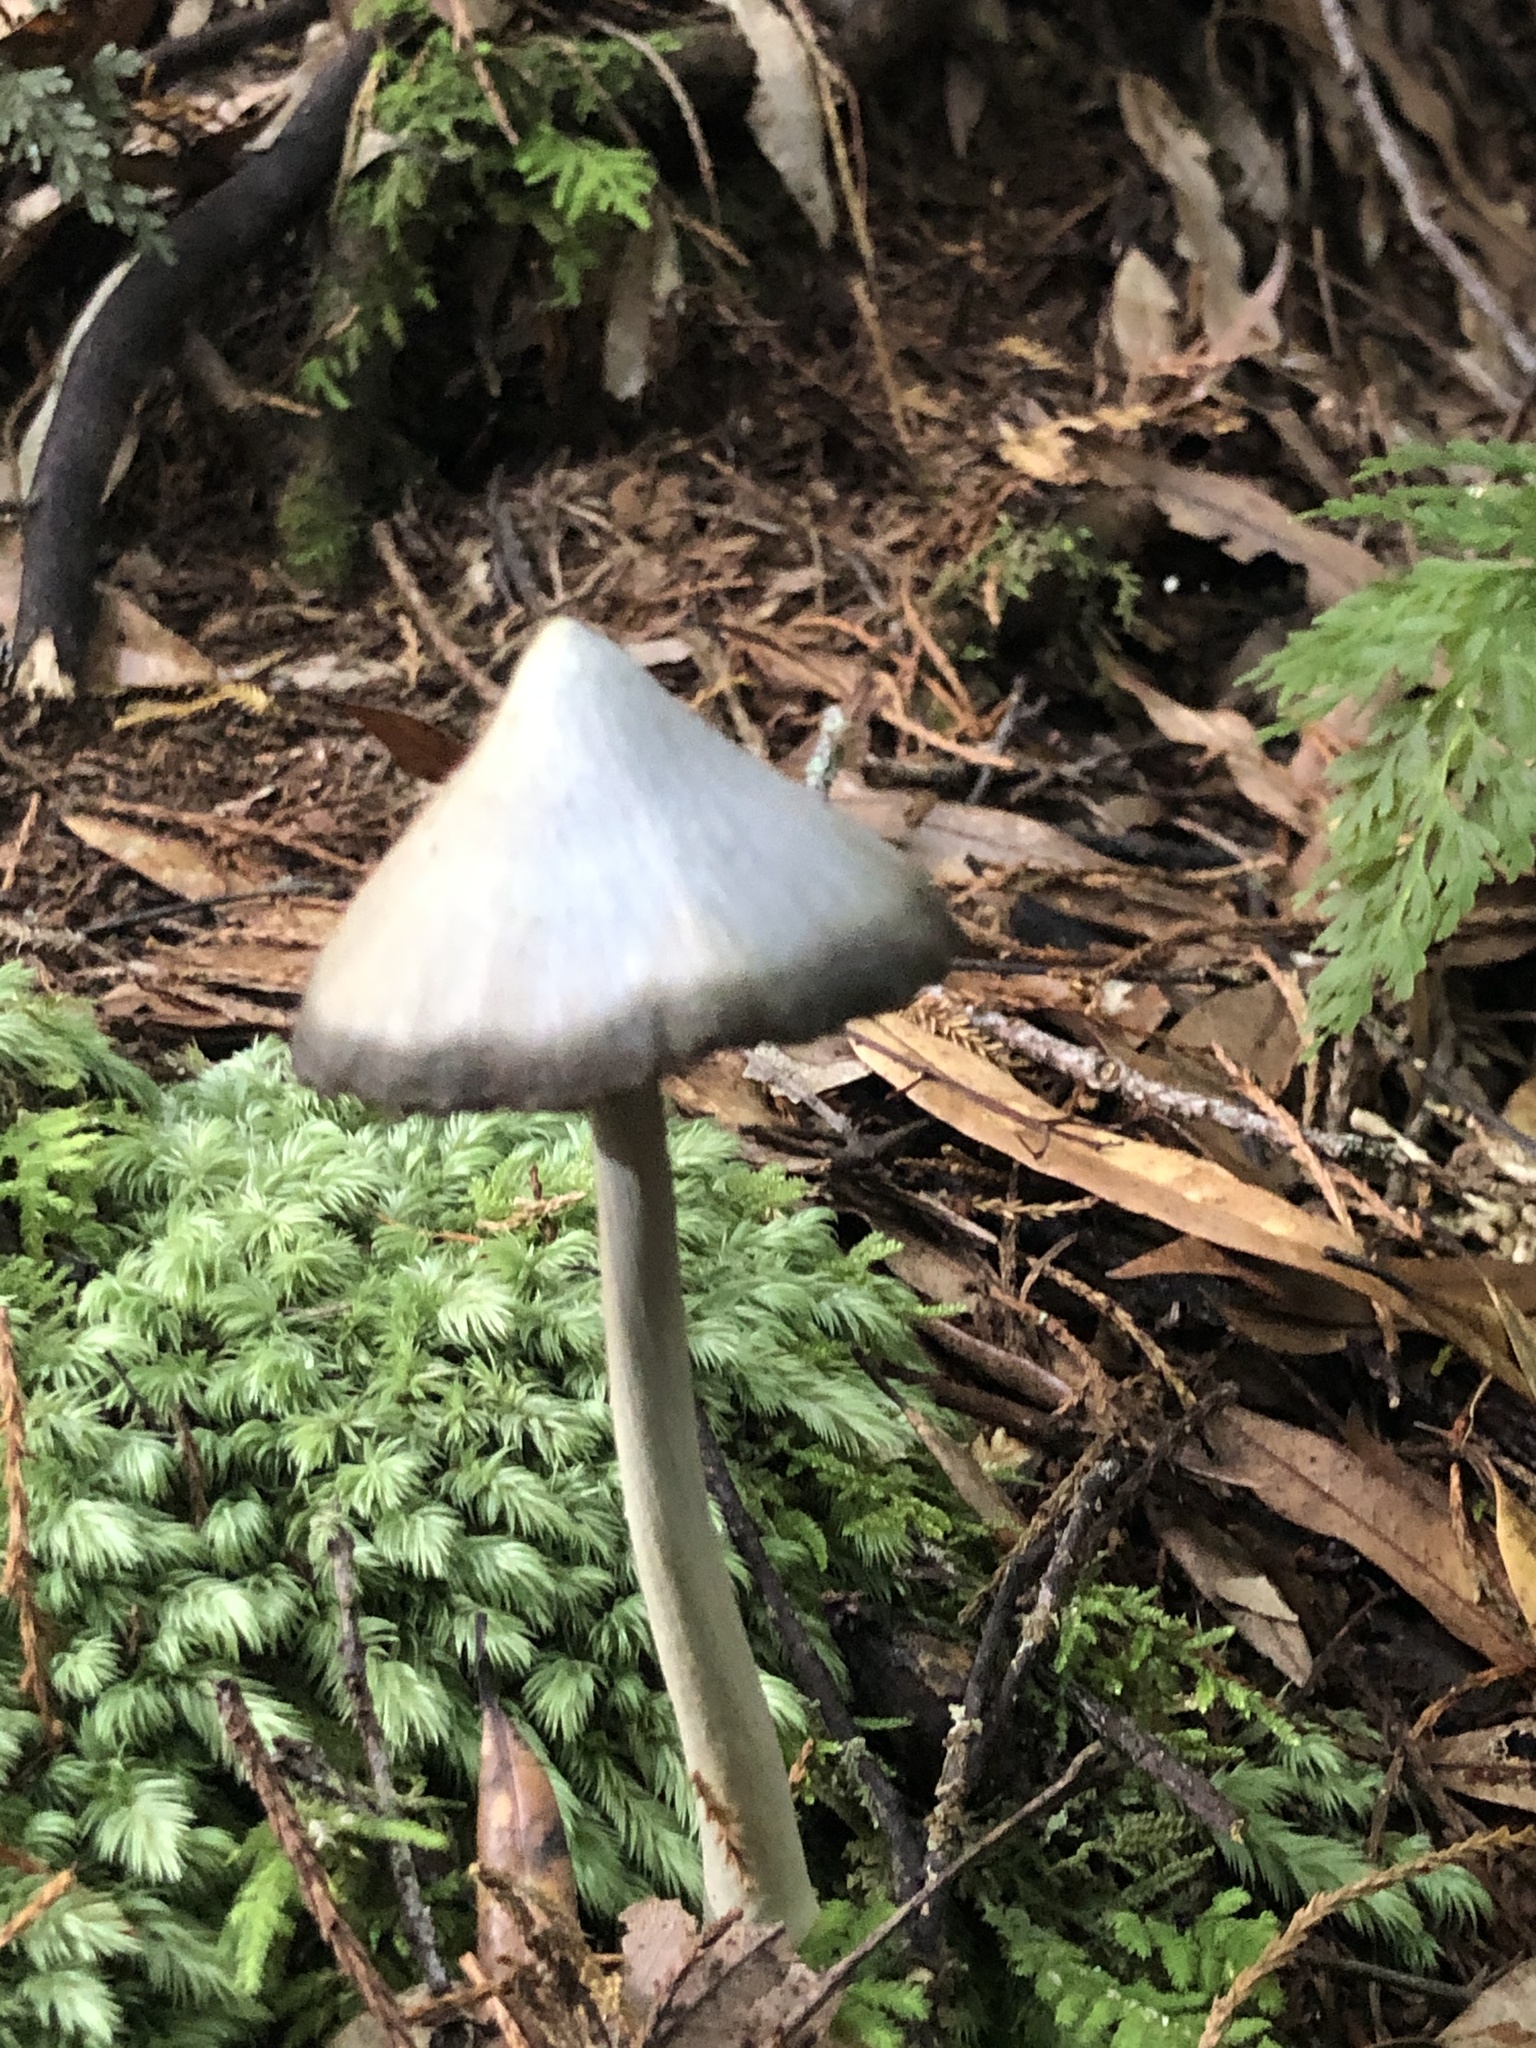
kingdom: Fungi
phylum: Basidiomycota
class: Agaricomycetes
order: Agaricales
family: Entolomataceae
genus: Entoloma
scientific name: Entoloma hochstetteri
